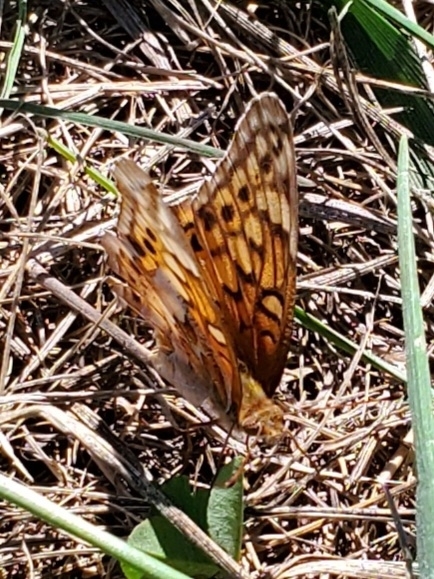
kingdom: Animalia
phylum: Arthropoda
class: Insecta
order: Lepidoptera
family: Nymphalidae
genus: Euptoieta
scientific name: Euptoieta claudia
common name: Variegated fritillary
